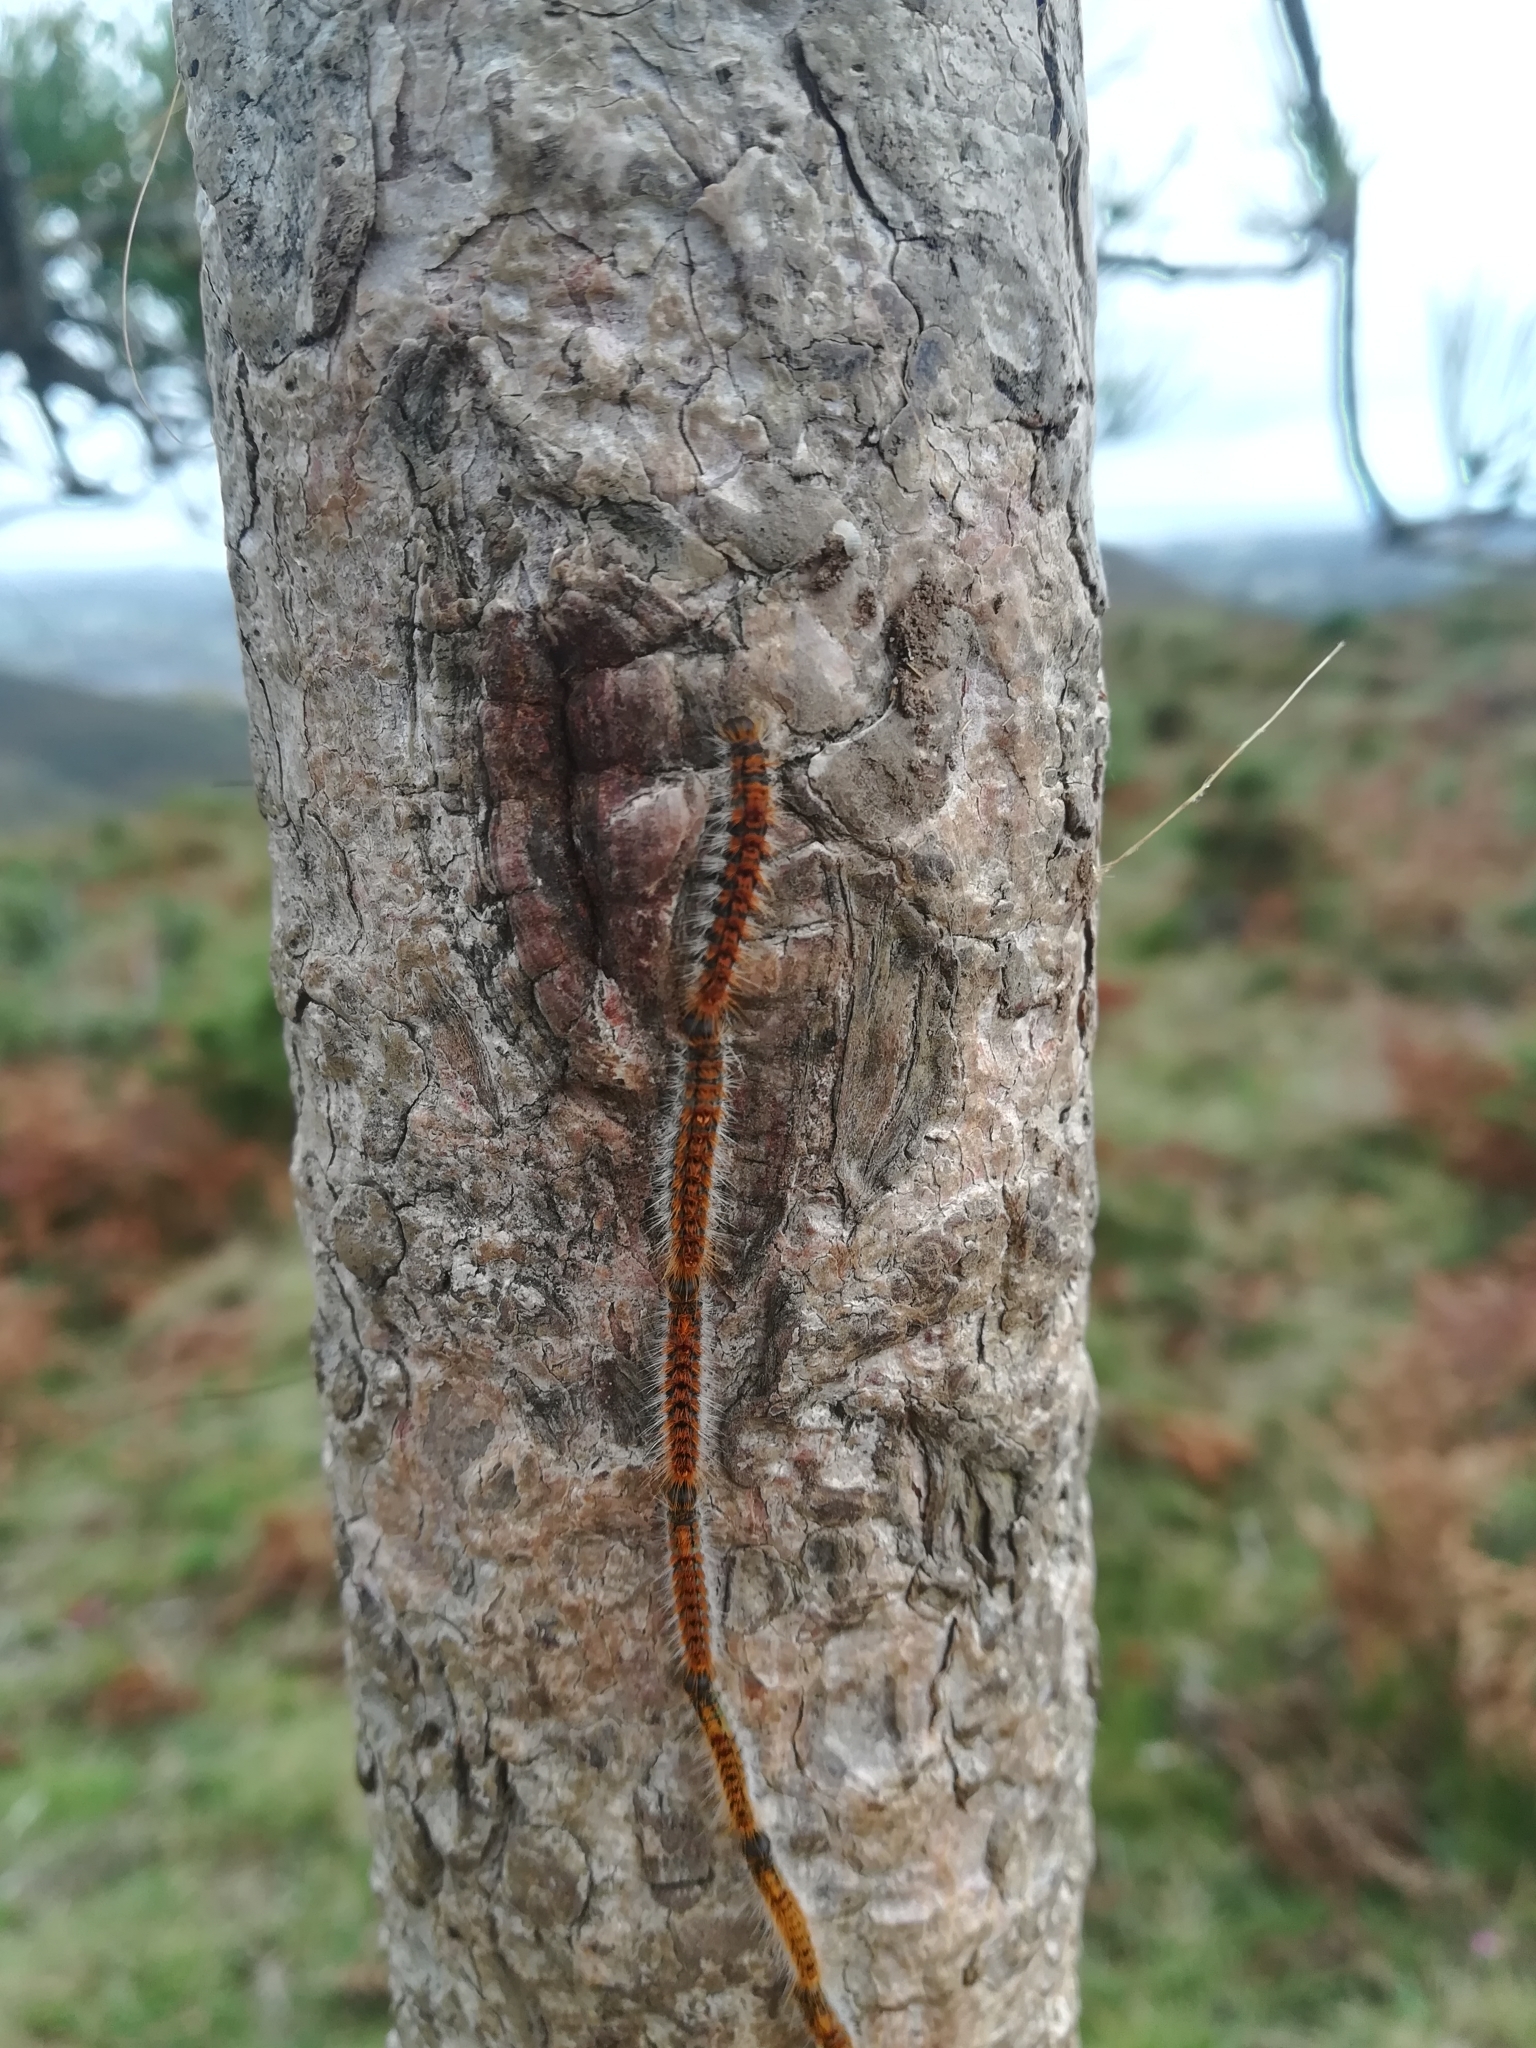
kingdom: Animalia
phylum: Arthropoda
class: Insecta
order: Lepidoptera
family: Notodontidae
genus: Thaumetopoea
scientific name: Thaumetopoea pityocampa
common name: Pine processionary
